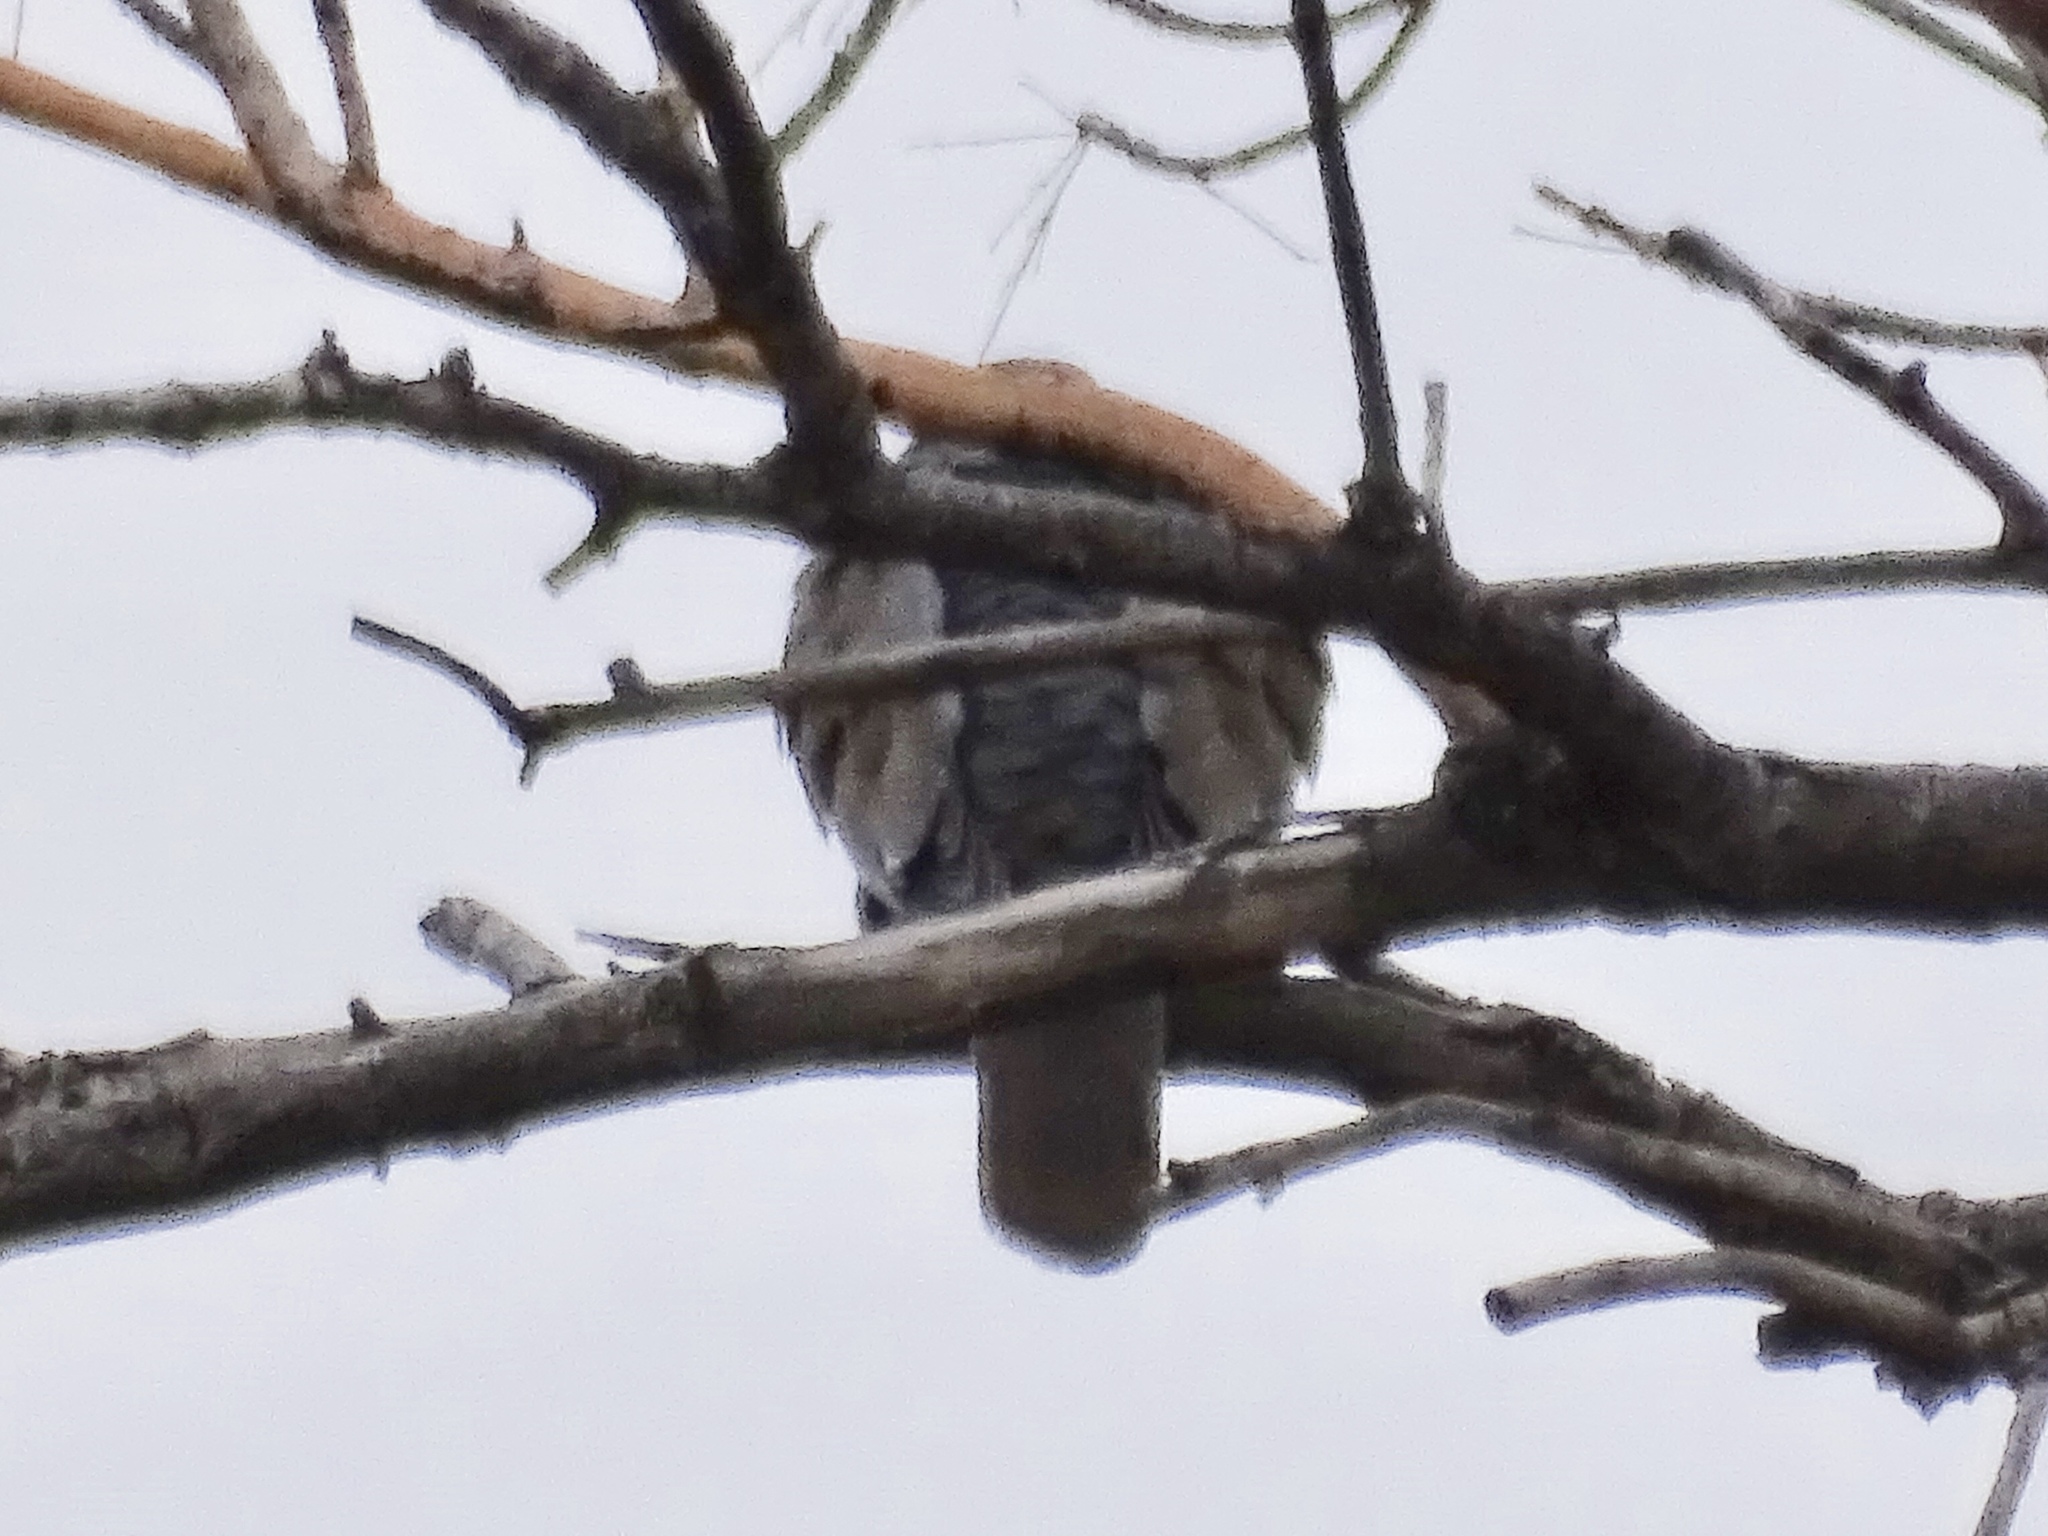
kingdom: Animalia
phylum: Chordata
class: Aves
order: Columbiformes
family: Columbidae
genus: Zenaida
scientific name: Zenaida asiatica
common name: White-winged dove
